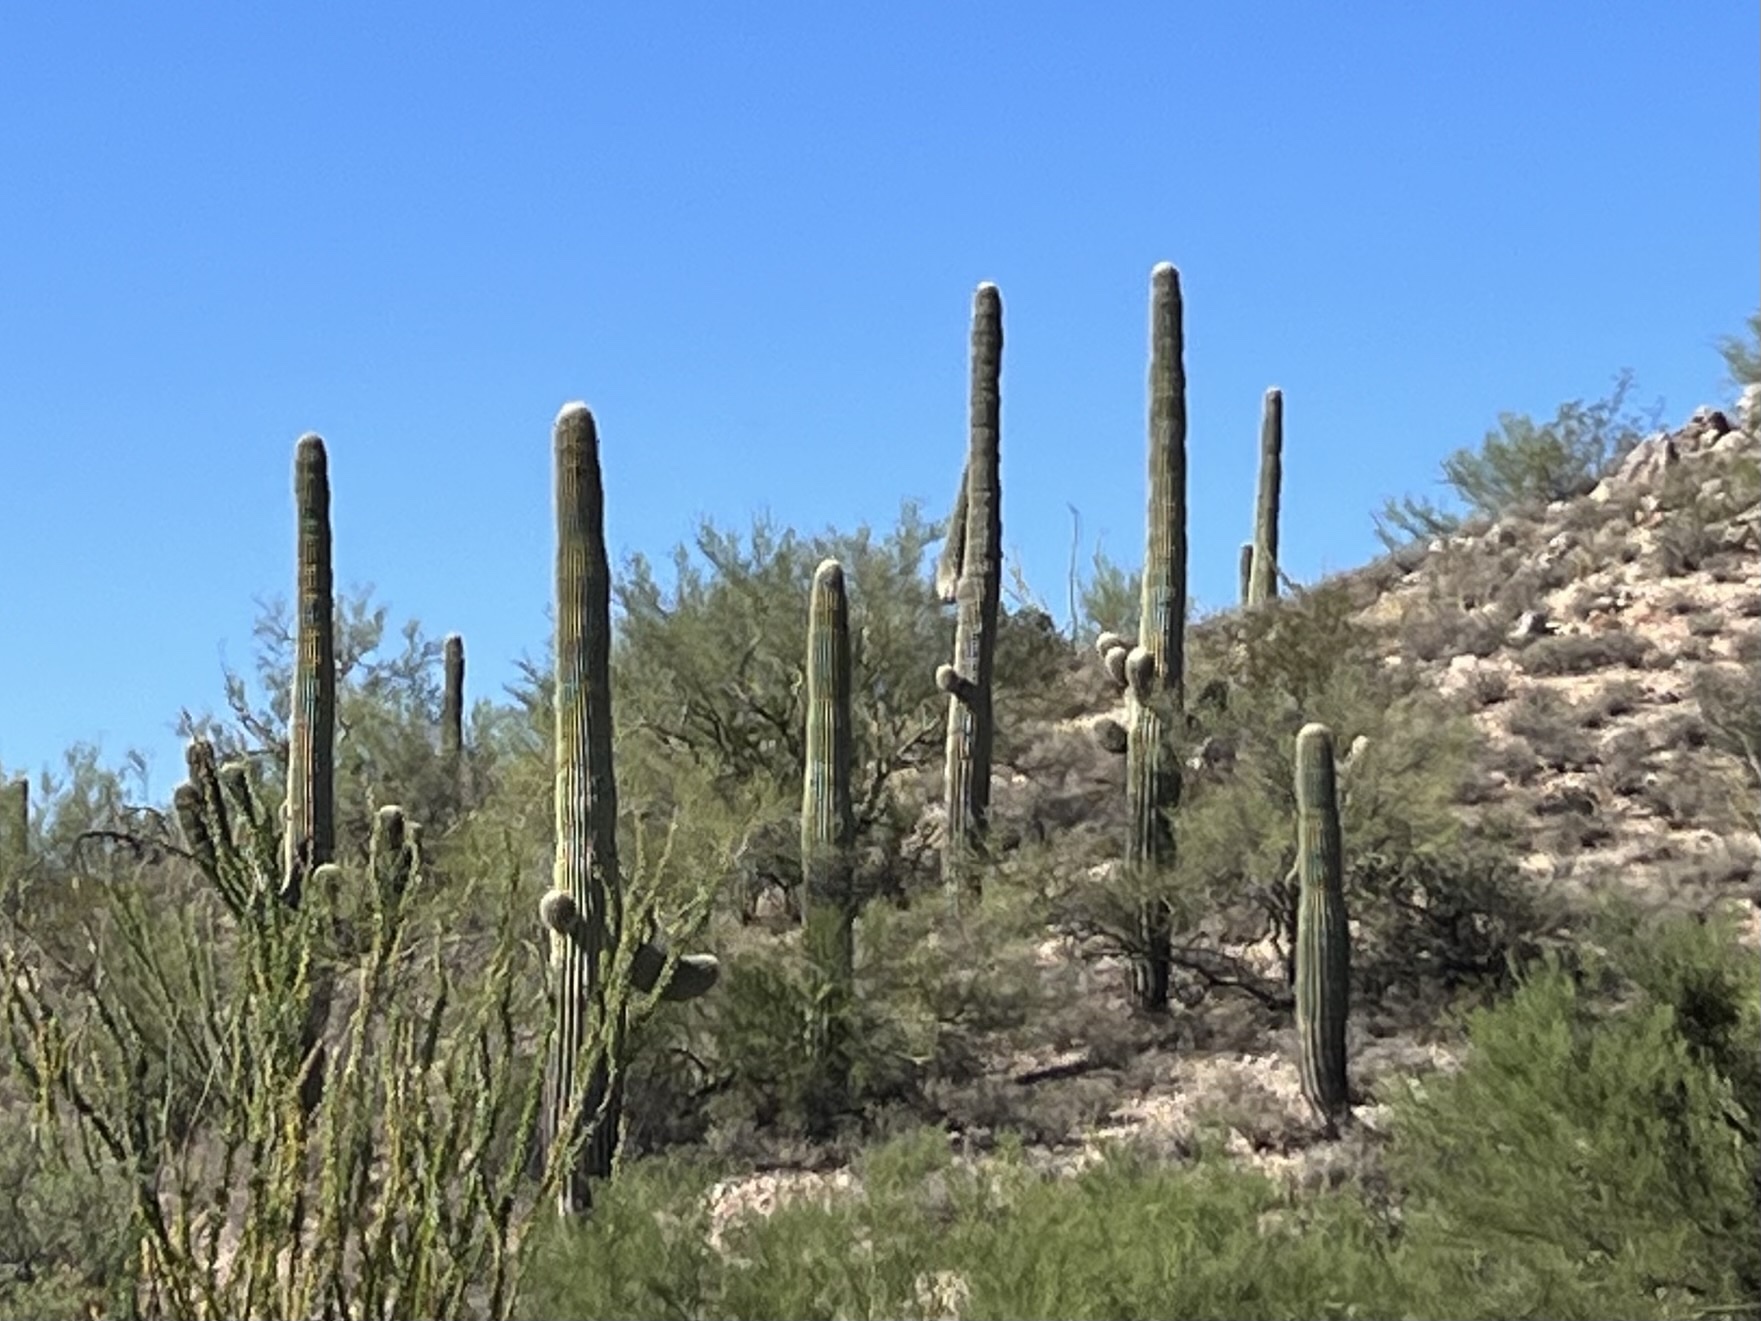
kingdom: Plantae
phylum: Tracheophyta
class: Magnoliopsida
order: Caryophyllales
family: Cactaceae
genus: Carnegiea
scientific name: Carnegiea gigantea
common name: Saguaro
